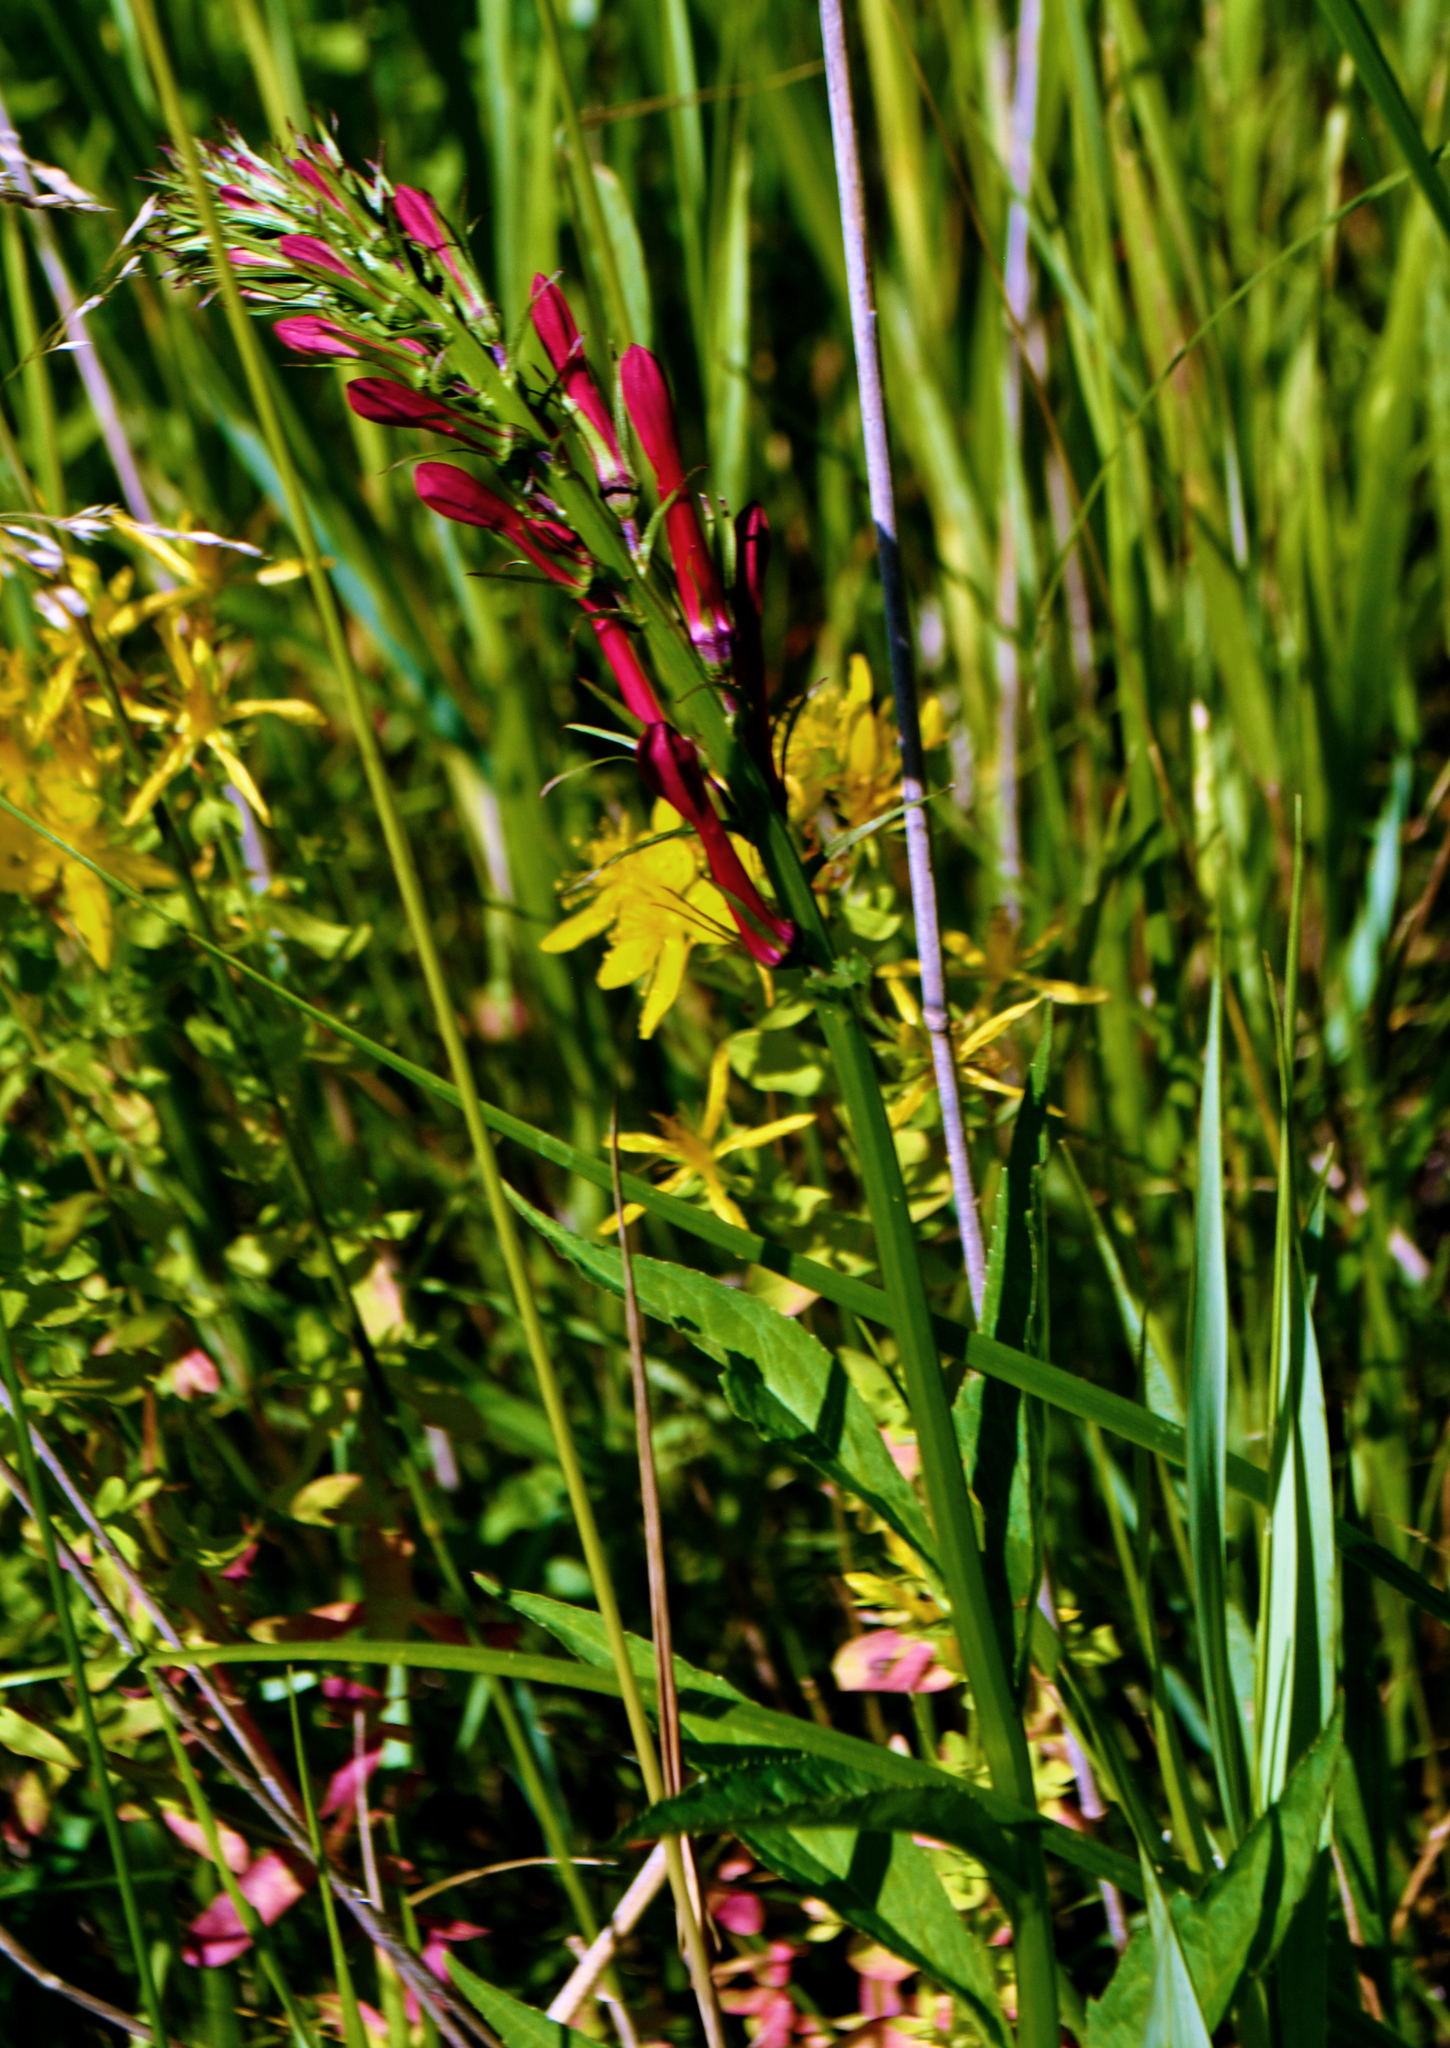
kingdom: Plantae
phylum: Tracheophyta
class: Magnoliopsida
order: Asterales
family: Campanulaceae
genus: Lobelia
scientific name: Lobelia cardinalis
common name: Cardinal flower
